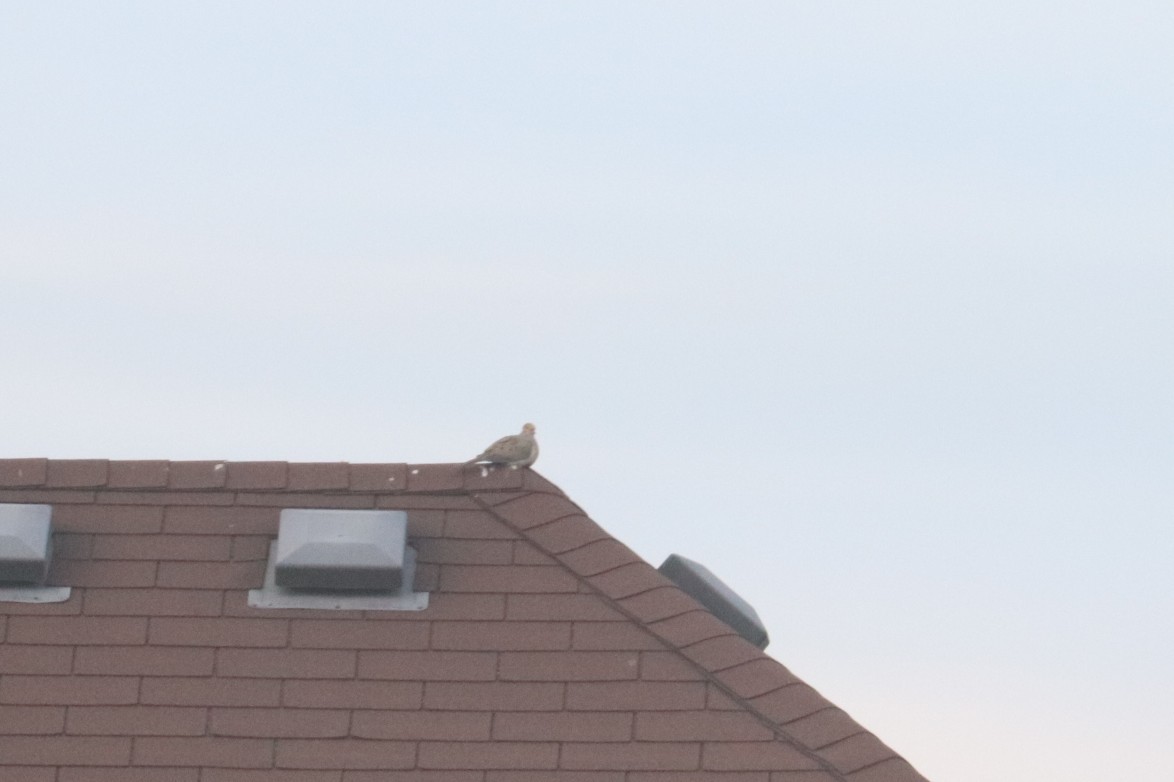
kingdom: Animalia
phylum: Chordata
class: Aves
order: Columbiformes
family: Columbidae
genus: Zenaida
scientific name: Zenaida macroura
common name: Mourning dove
